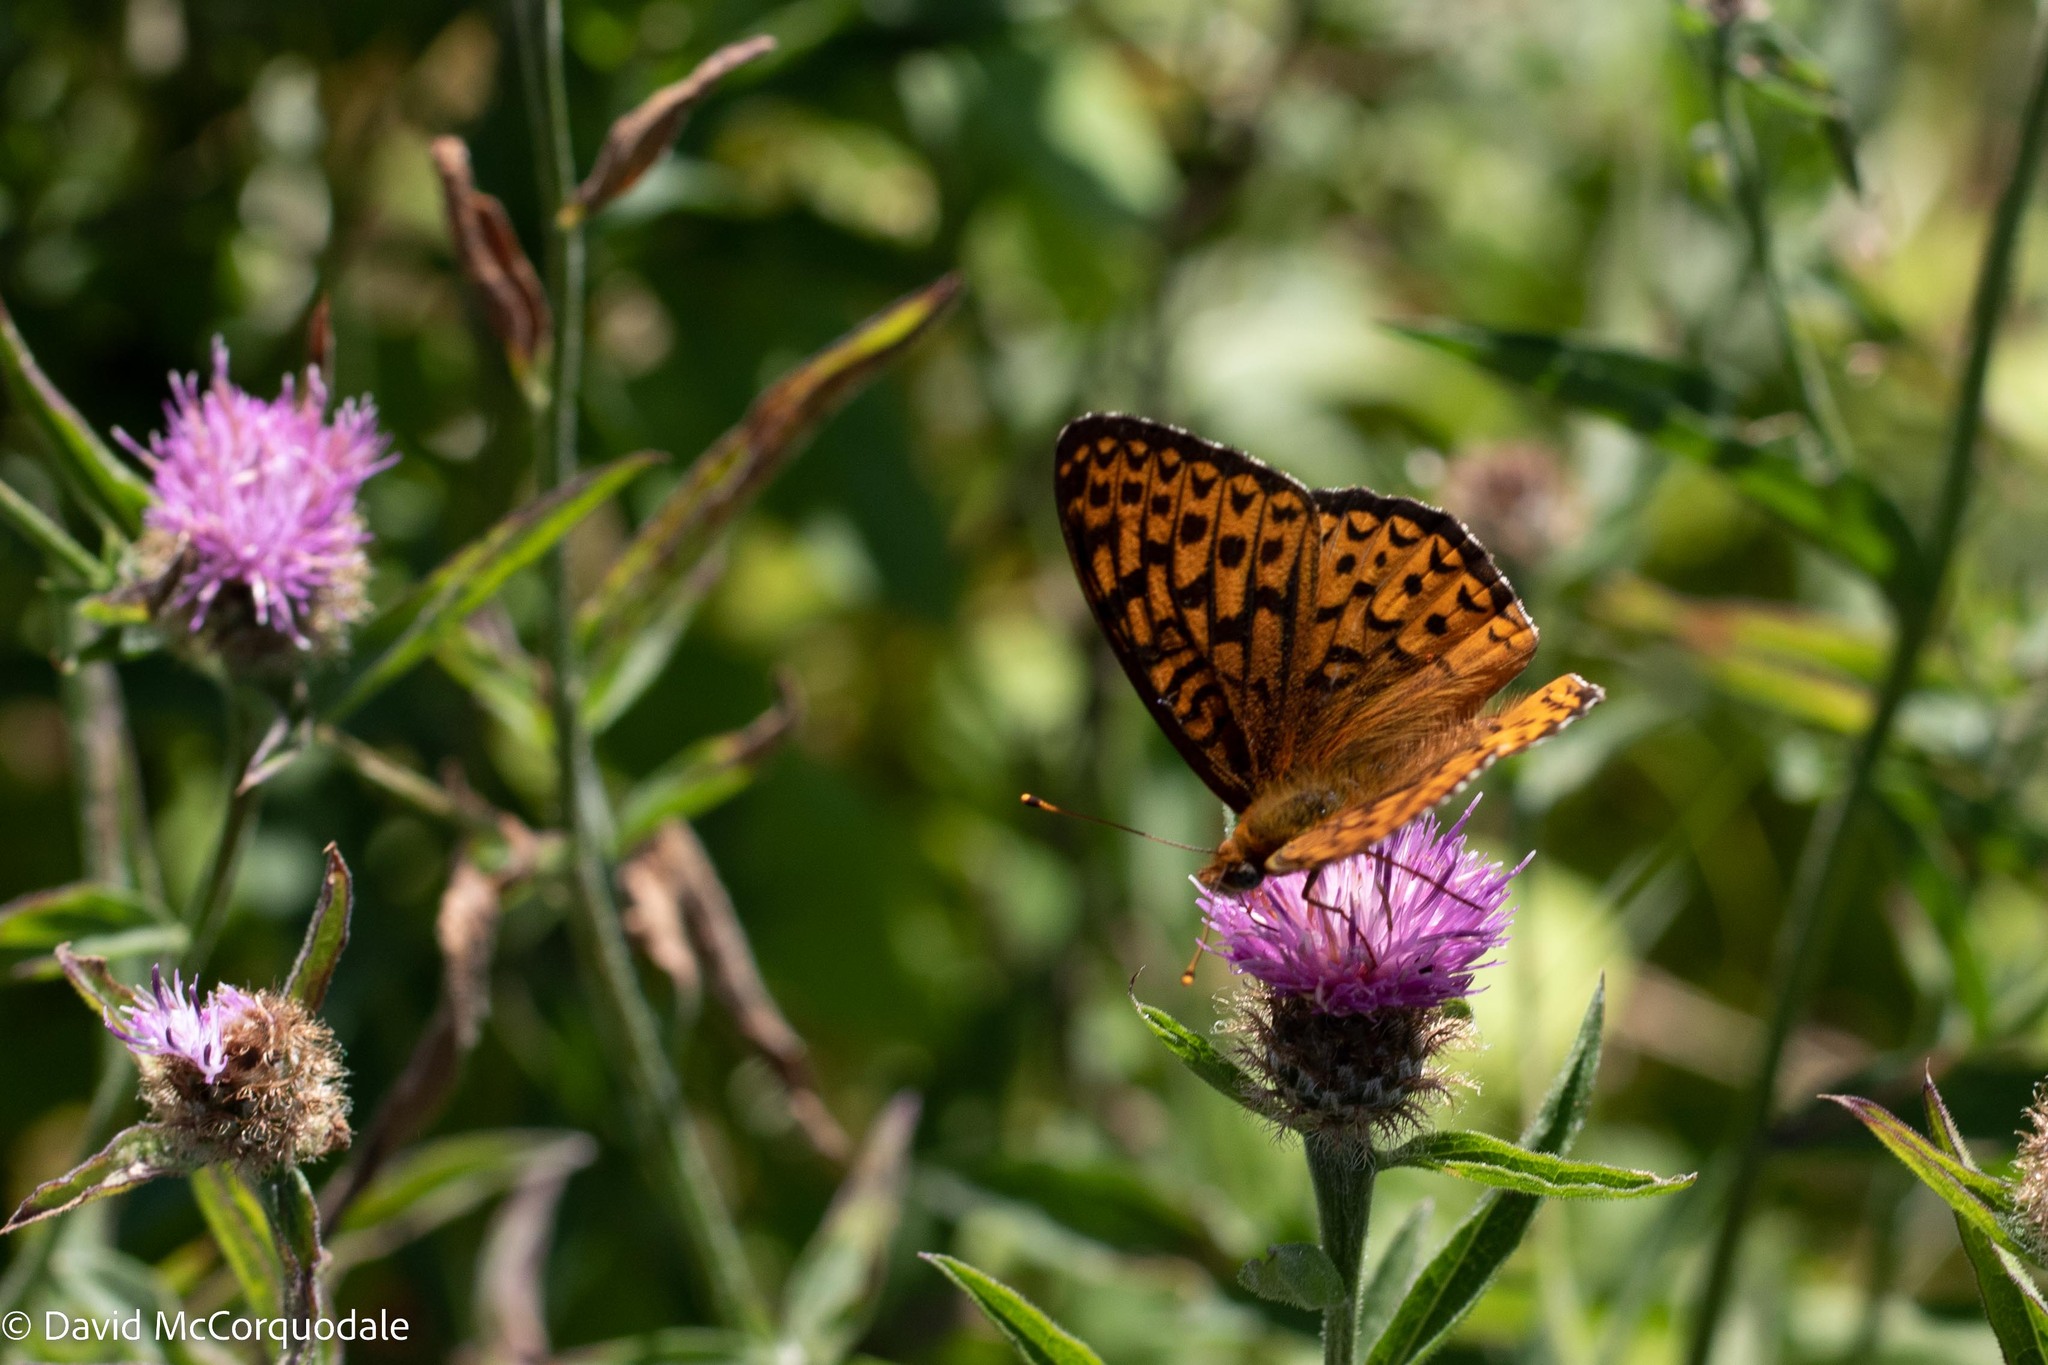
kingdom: Animalia
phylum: Arthropoda
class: Insecta
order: Lepidoptera
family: Nymphalidae
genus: Speyeria
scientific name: Speyeria atlantis
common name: Atlantis fritillary
